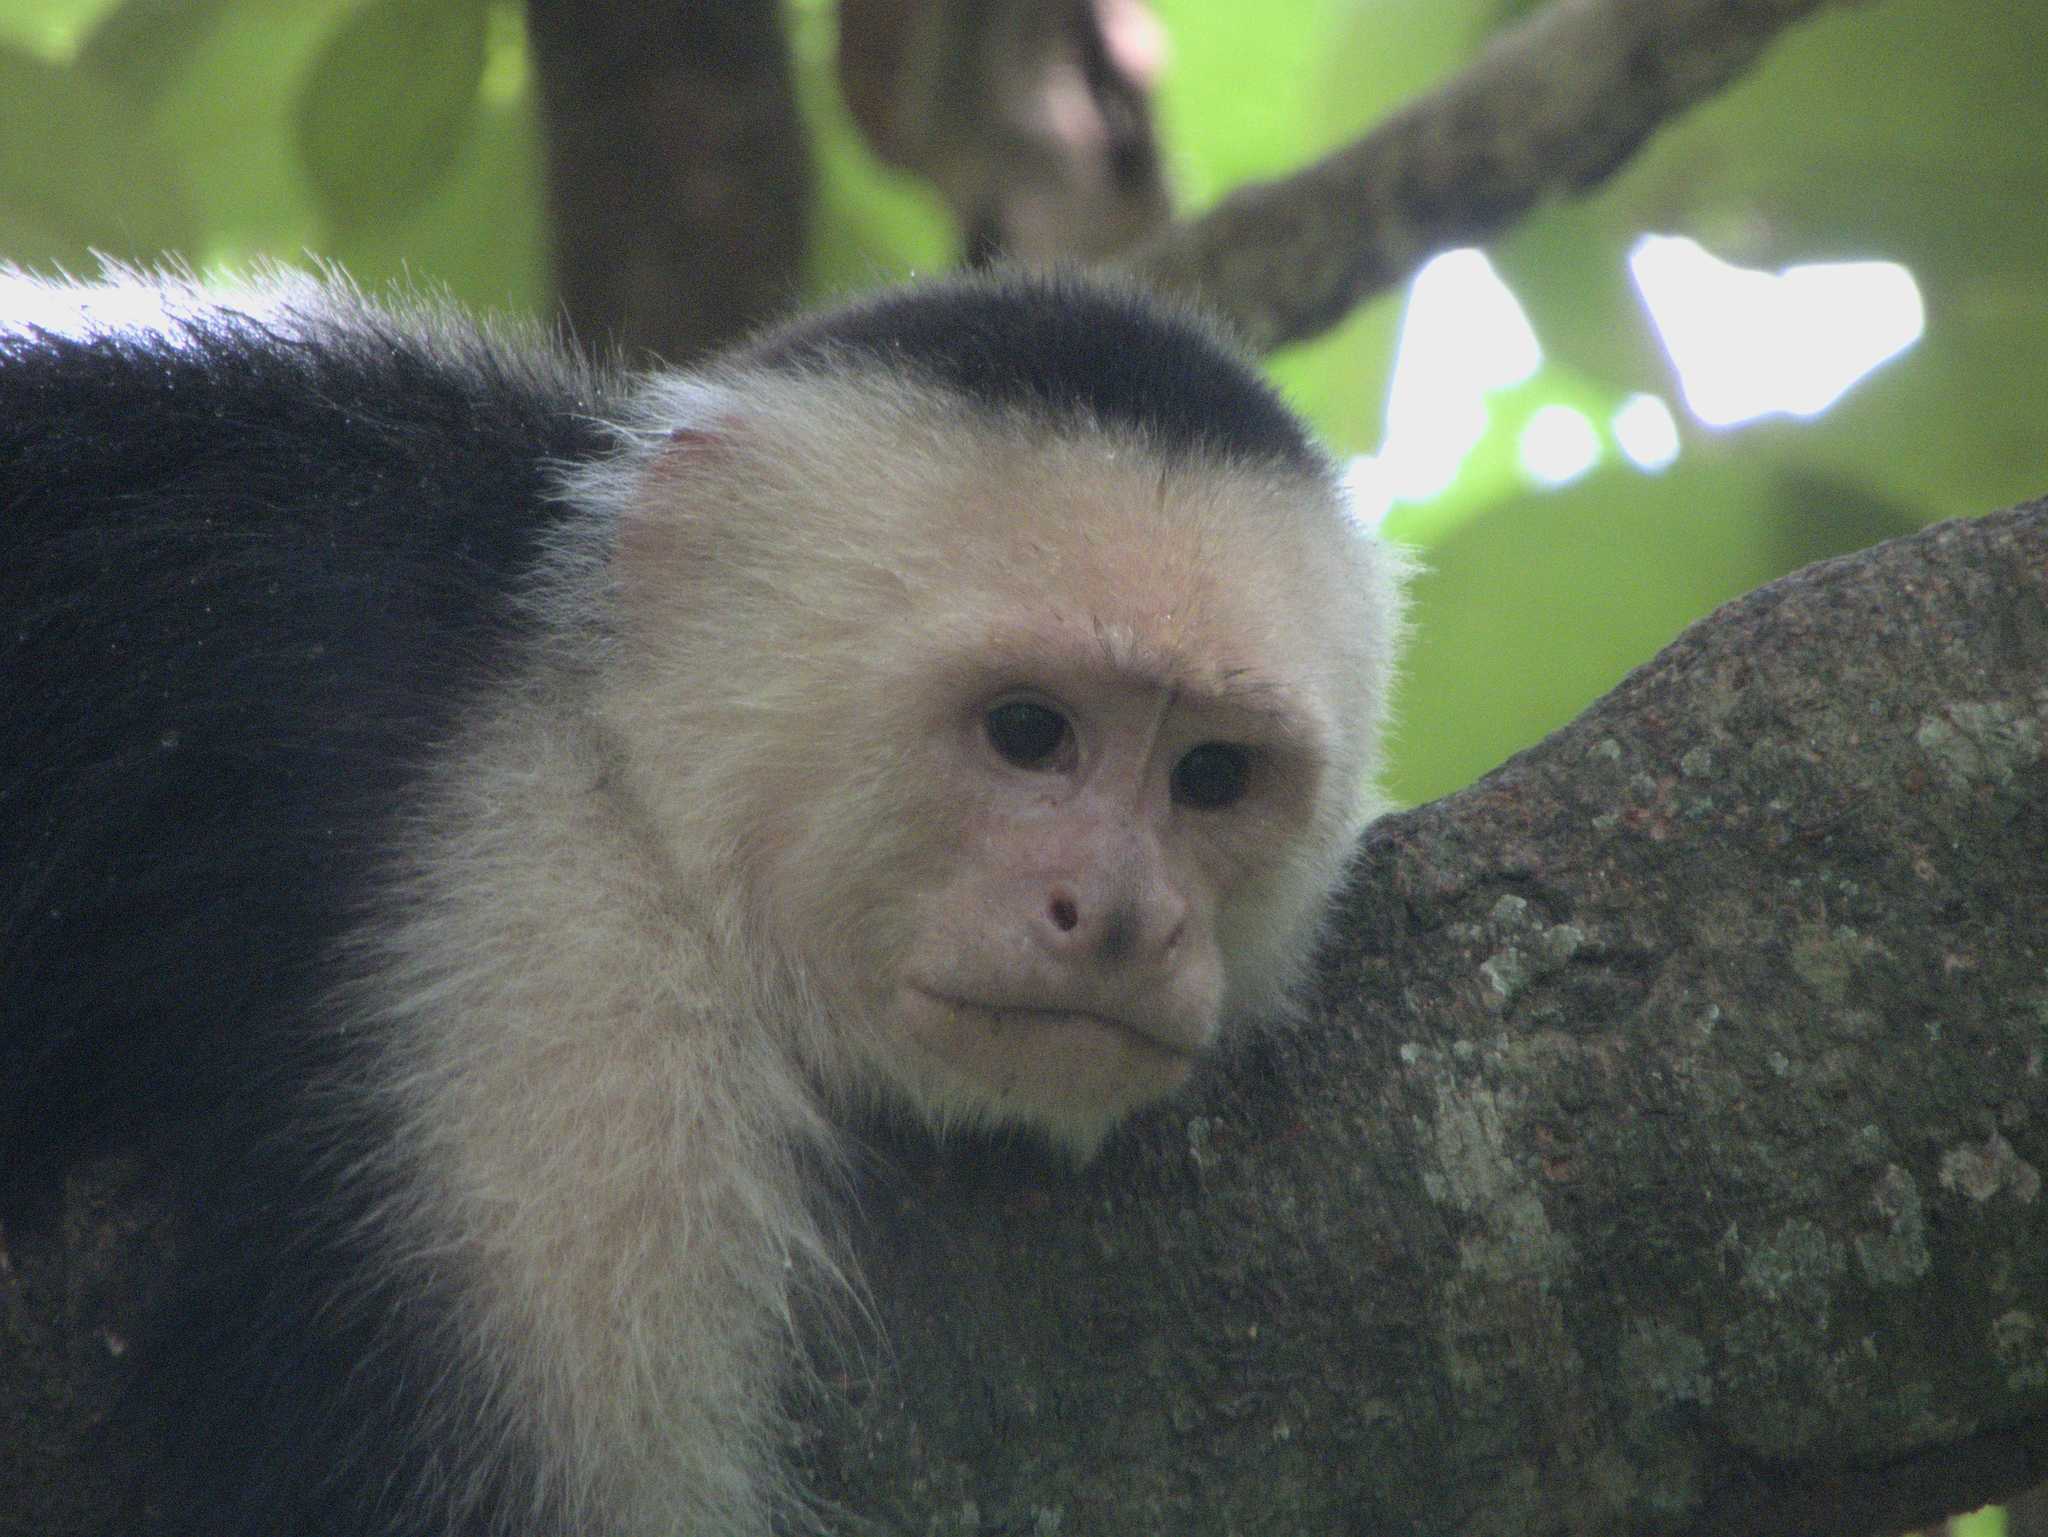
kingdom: Animalia
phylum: Chordata
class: Mammalia
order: Primates
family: Cebidae
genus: Cebus
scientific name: Cebus imitator
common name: Panamanian white-faced capuchin
